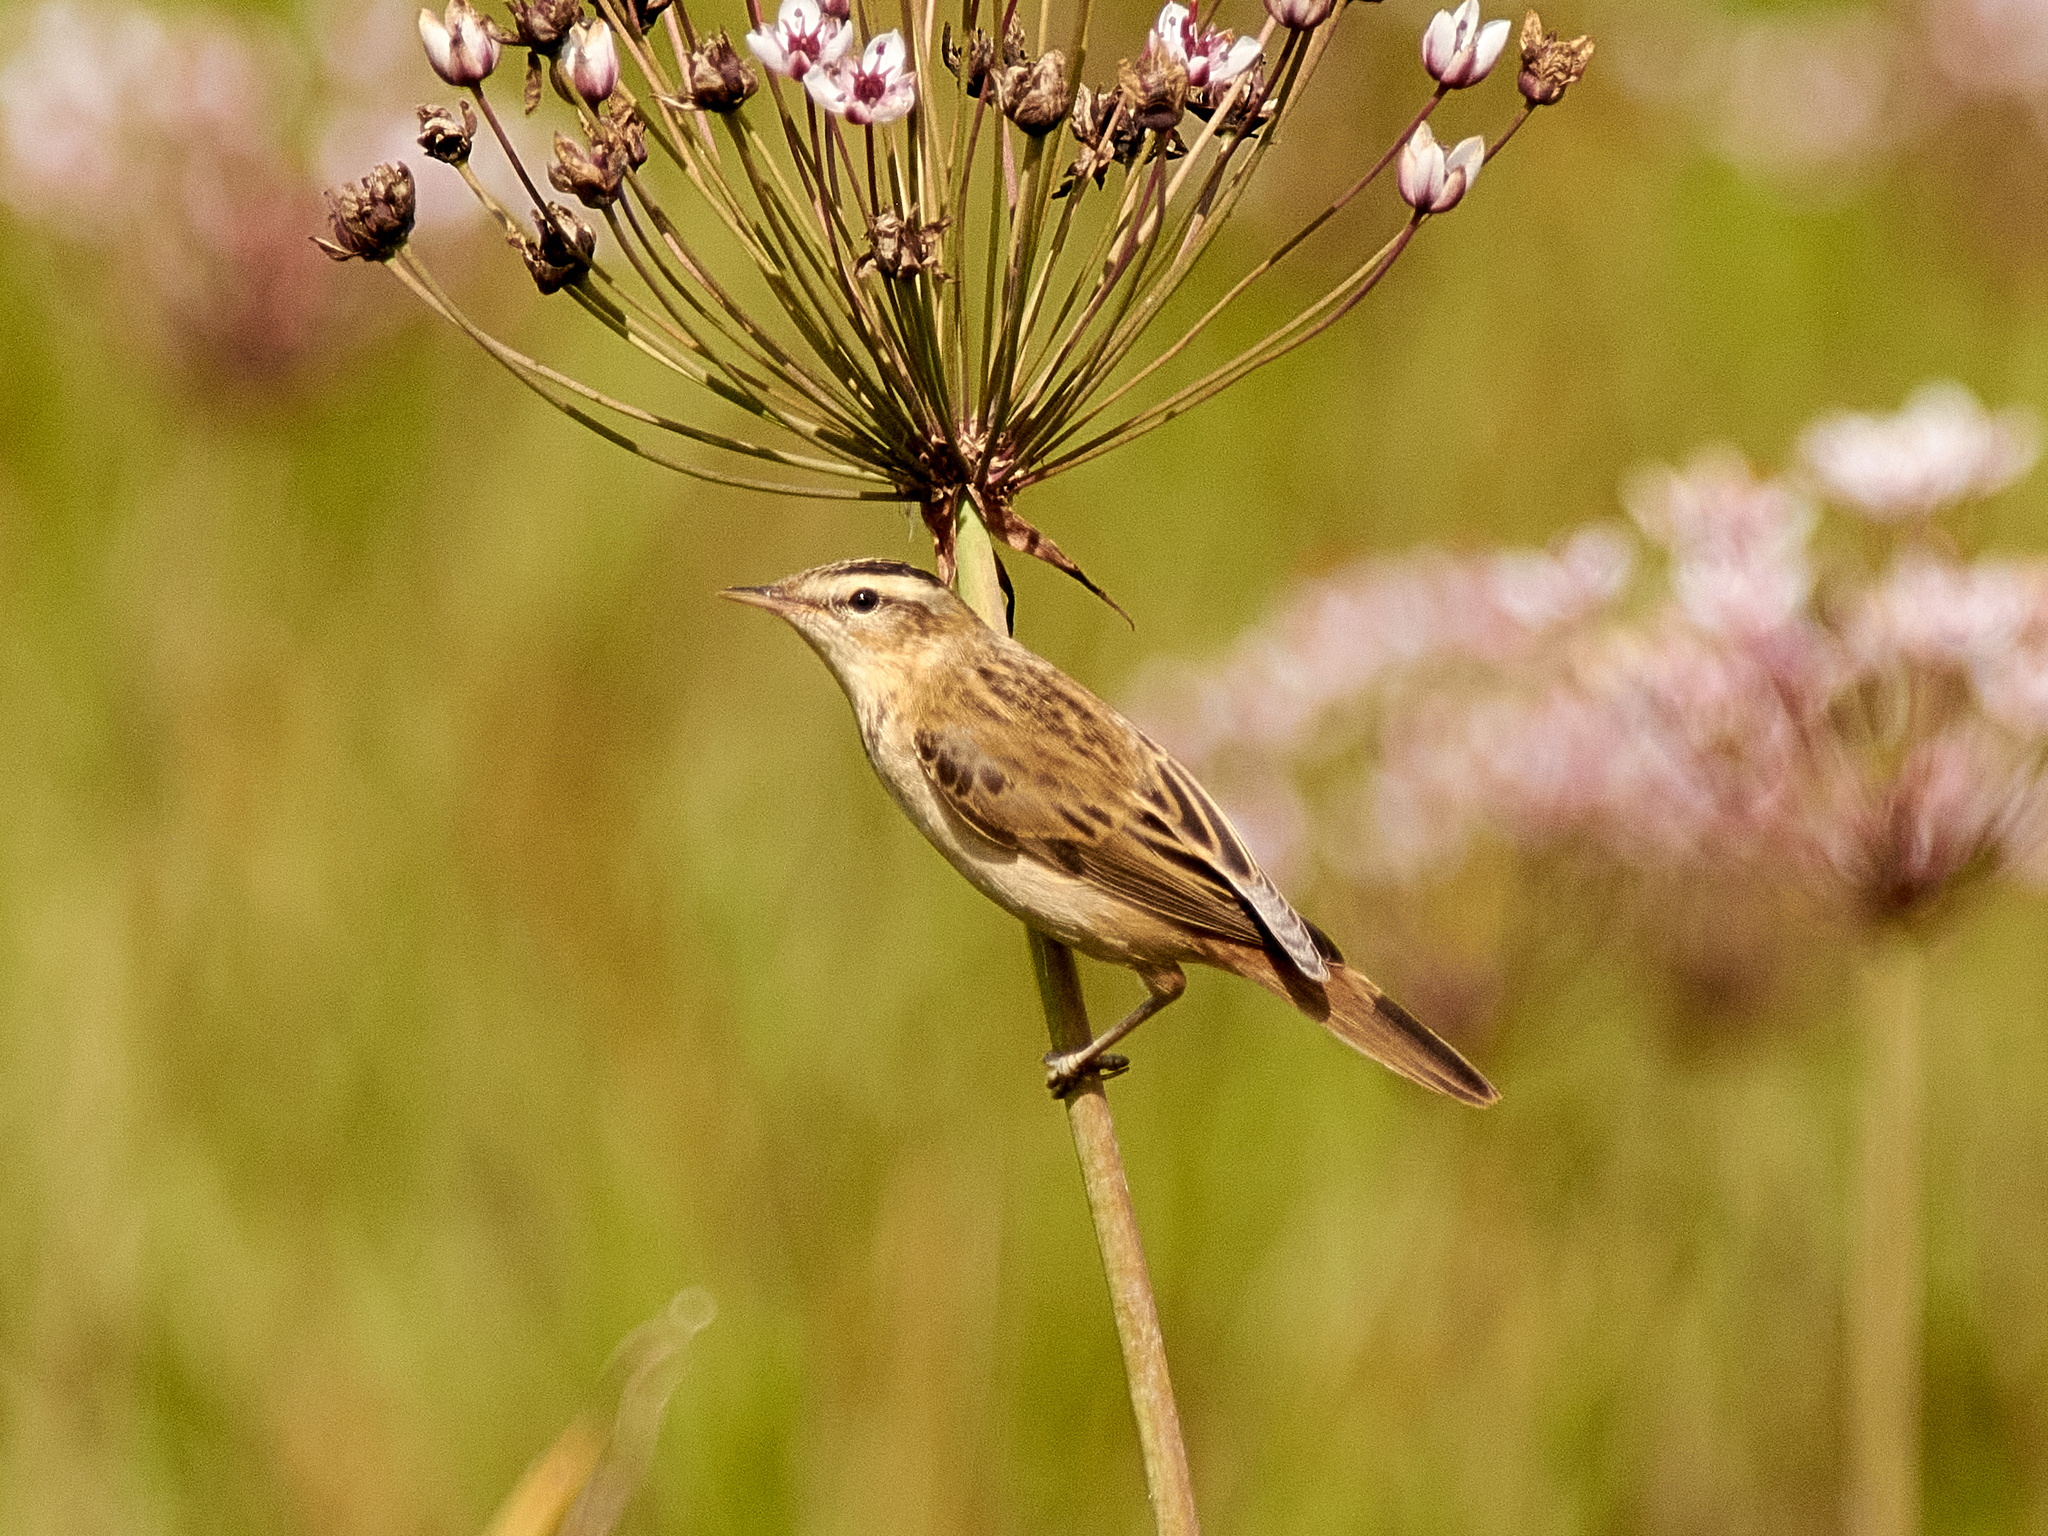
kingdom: Animalia
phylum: Chordata
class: Aves
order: Passeriformes
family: Acrocephalidae
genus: Acrocephalus
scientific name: Acrocephalus schoenobaenus
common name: Sedge warbler
